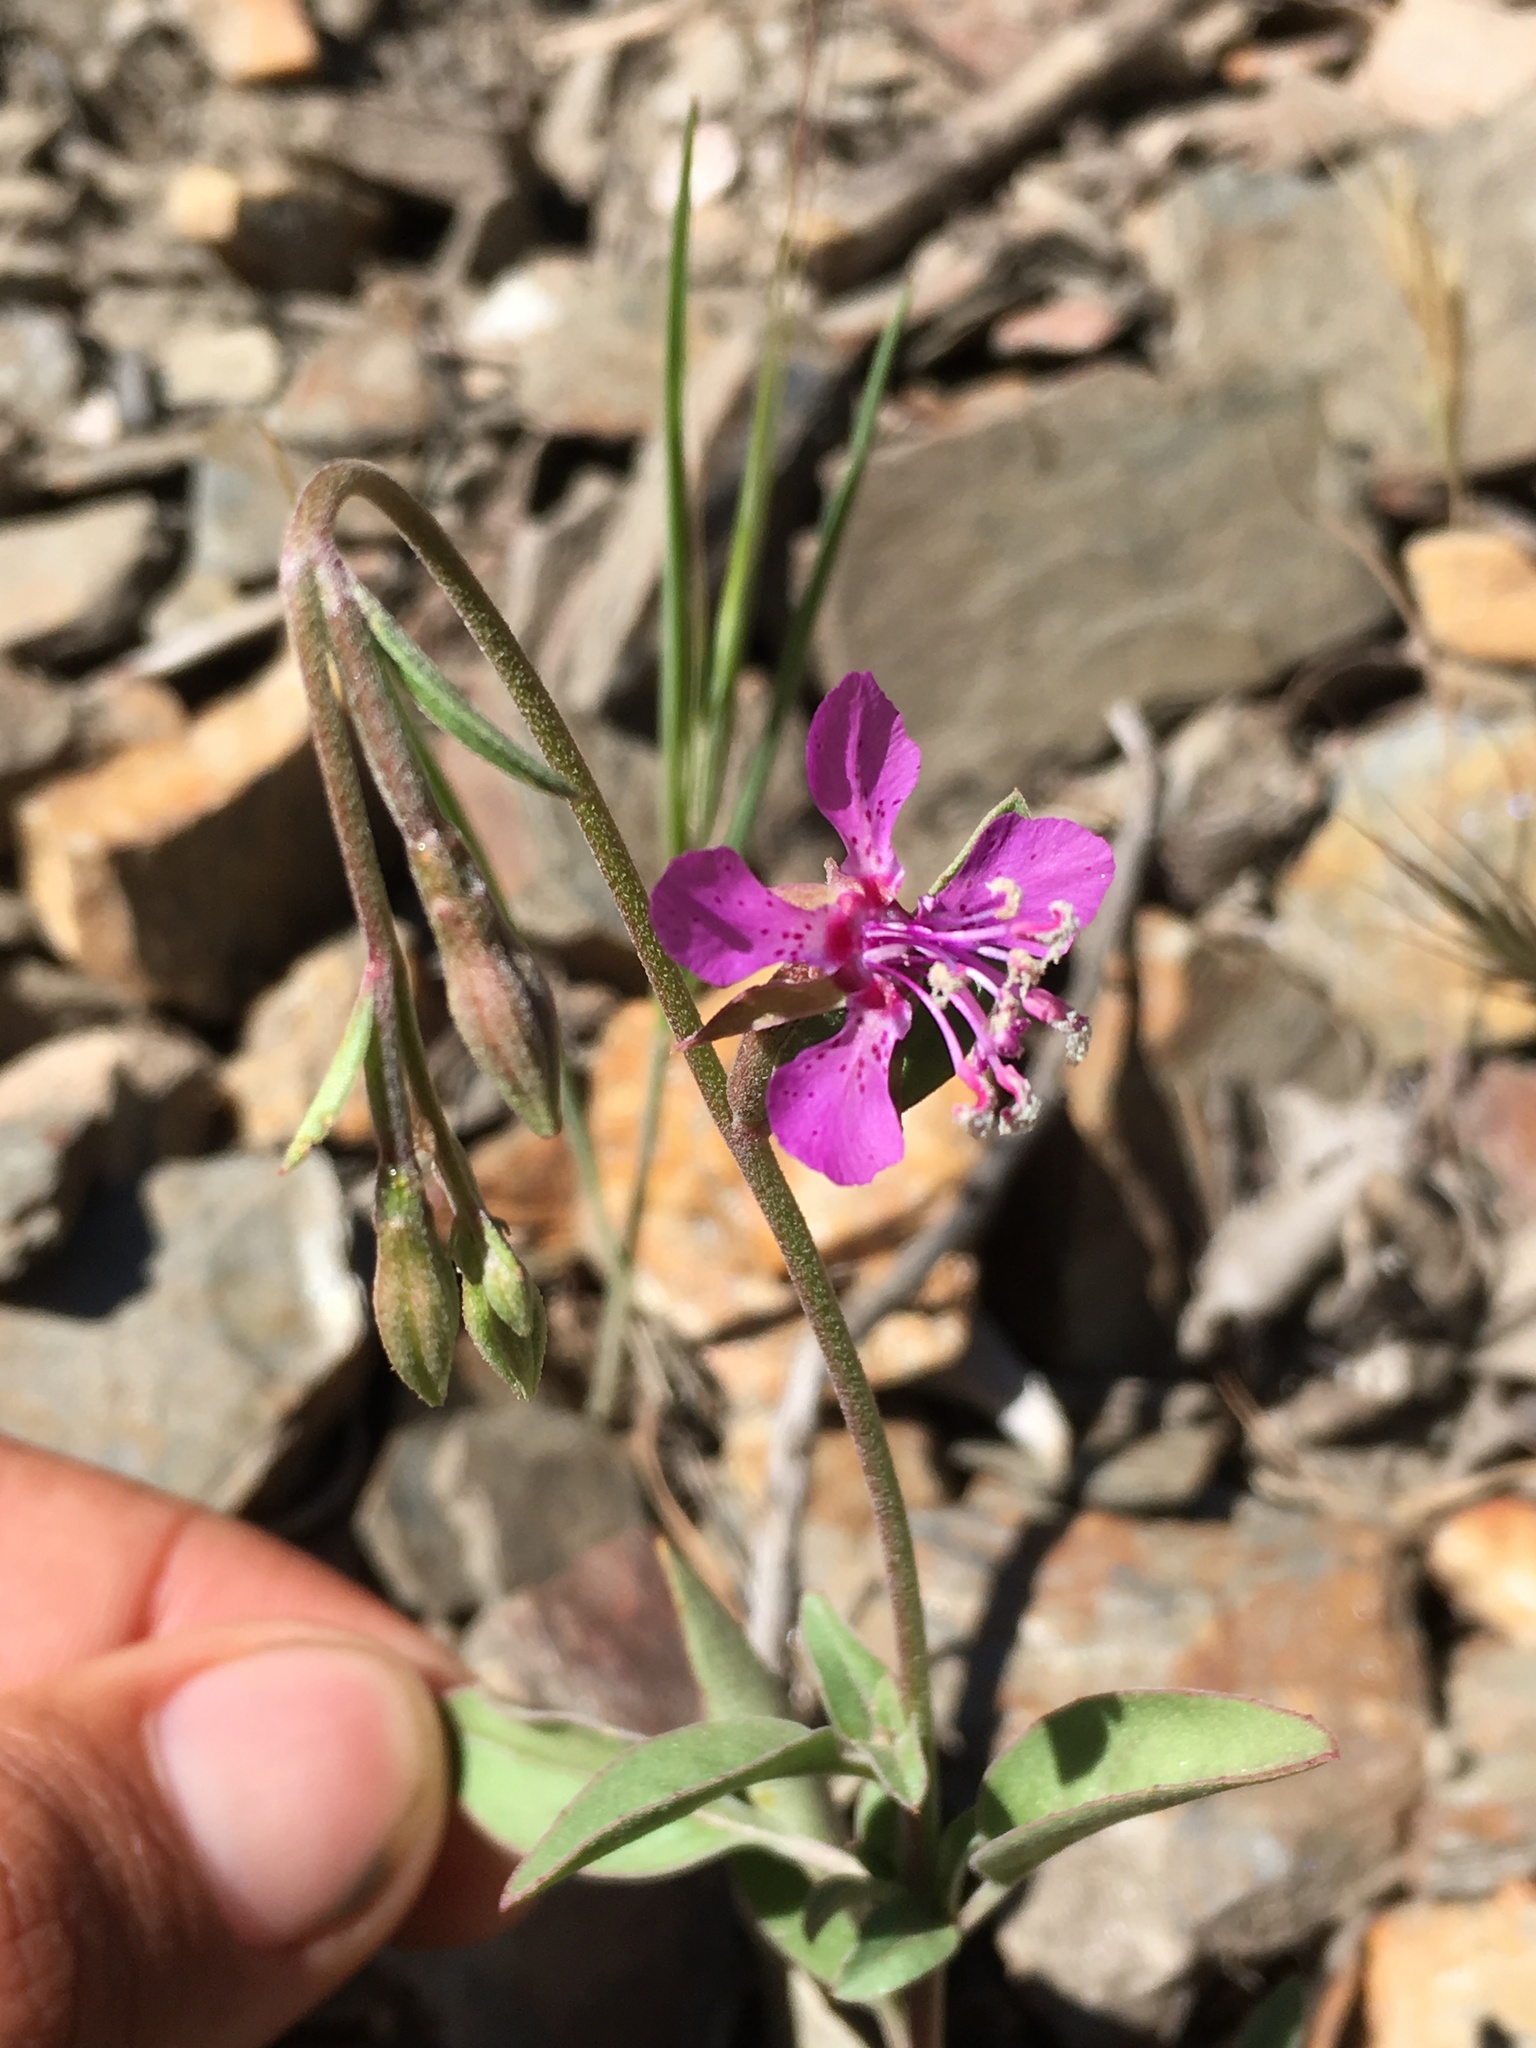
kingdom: Plantae
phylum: Tracheophyta
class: Magnoliopsida
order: Myrtales
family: Onagraceae
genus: Clarkia
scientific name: Clarkia rhomboidea
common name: Broadleaf clarkia
